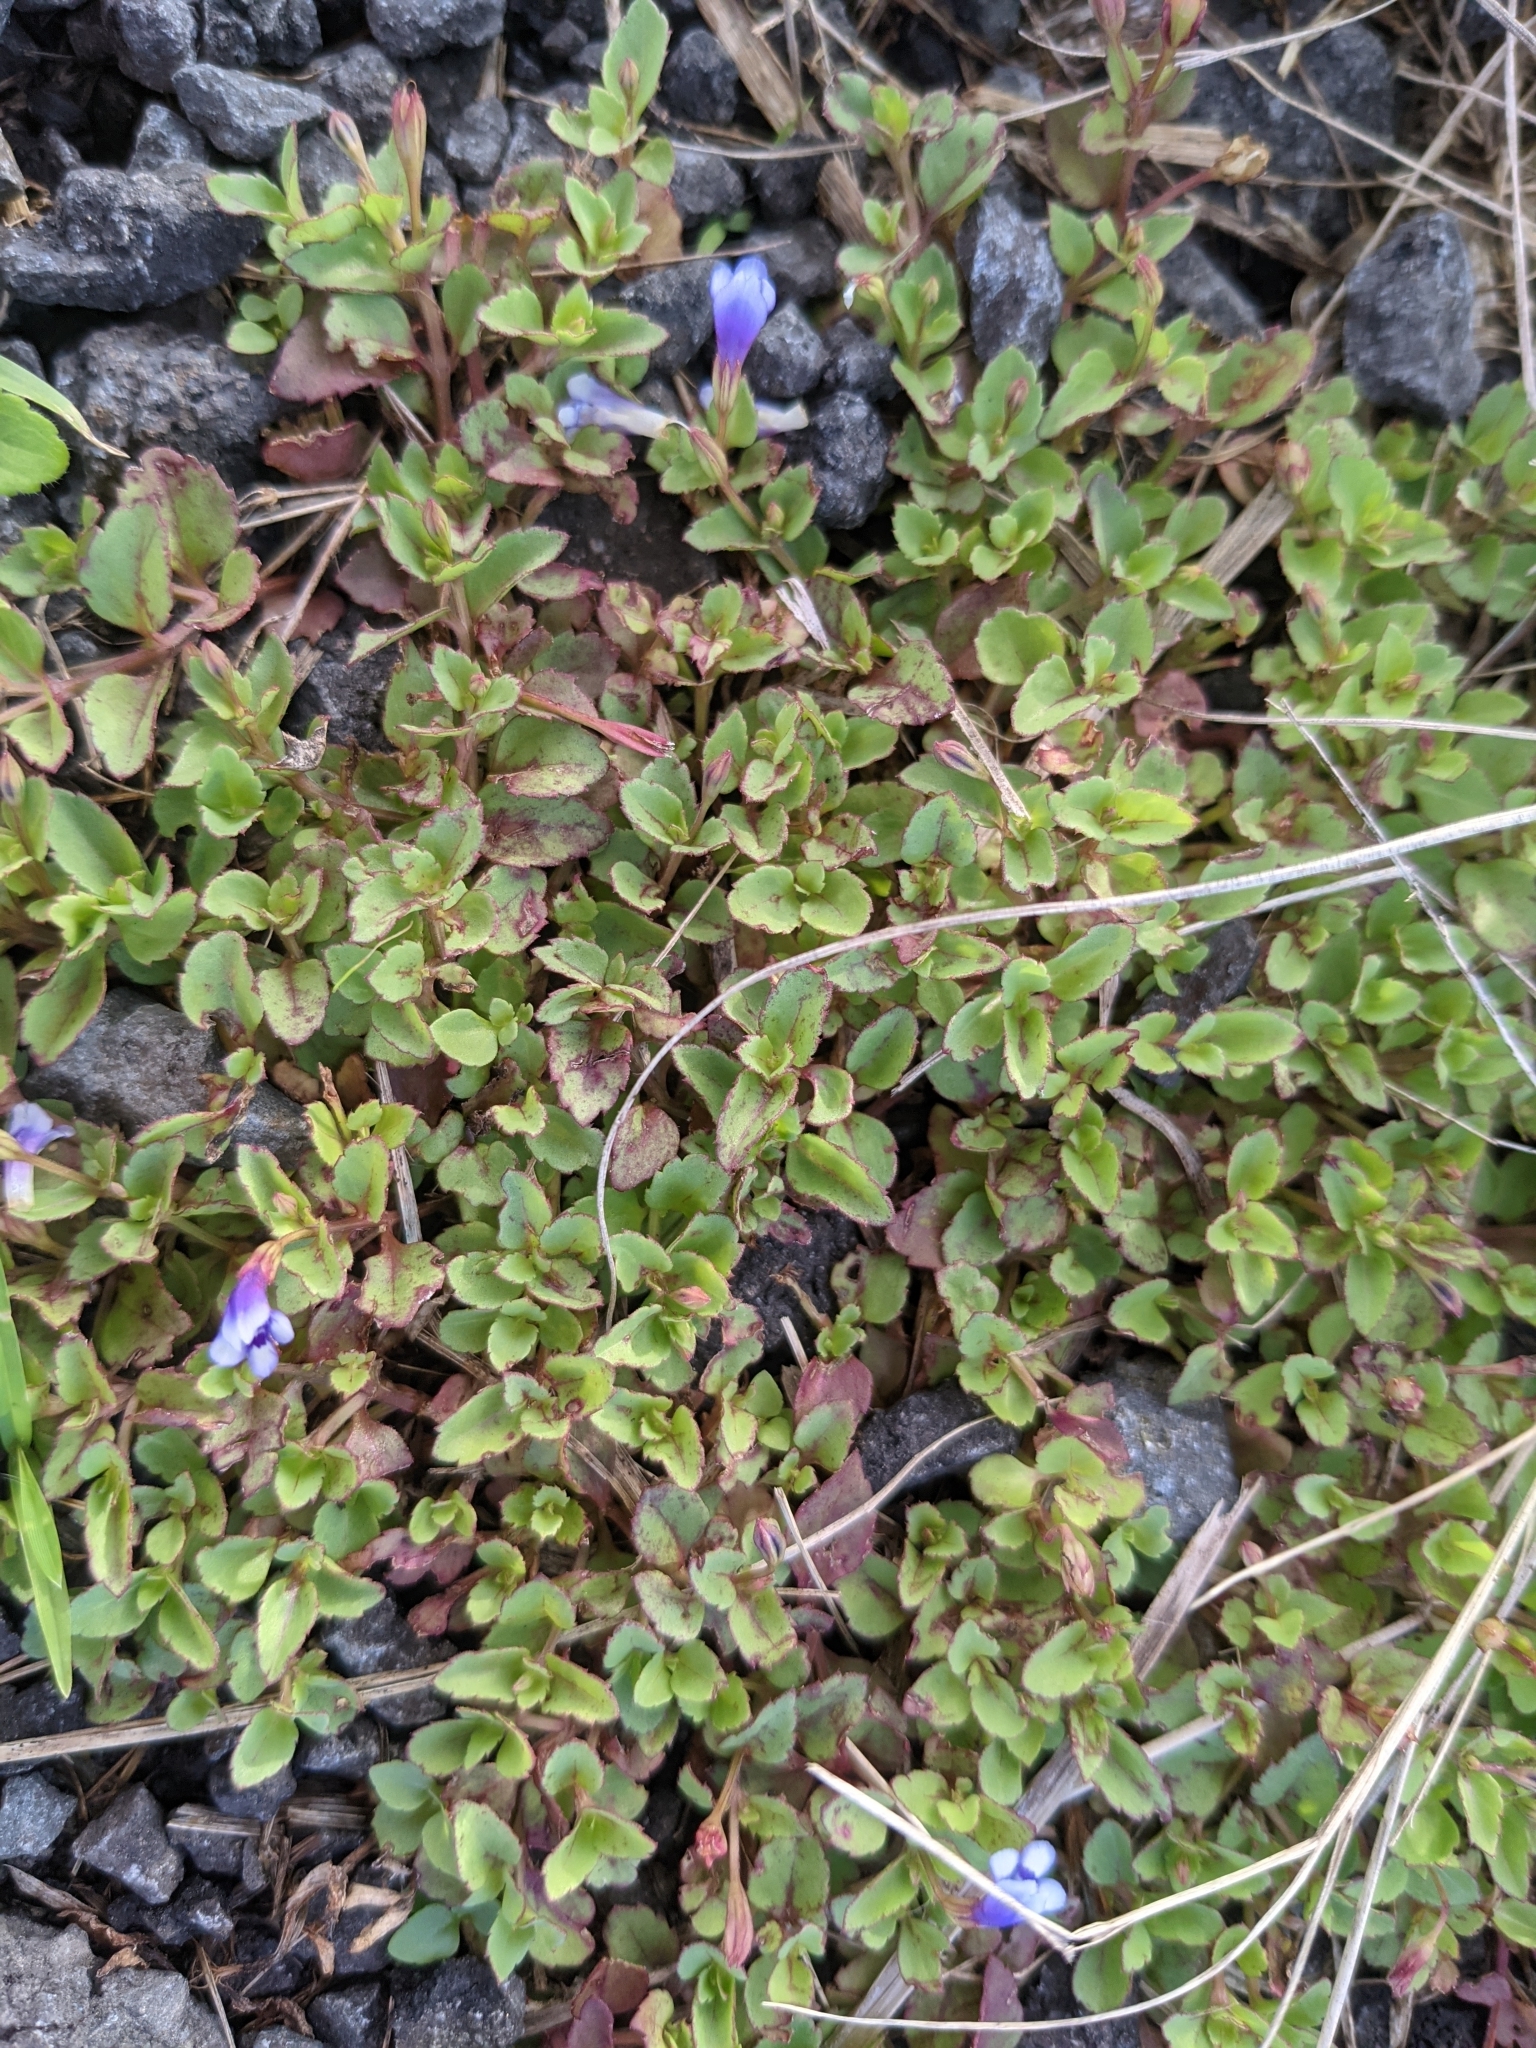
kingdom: Plantae
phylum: Tracheophyta
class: Magnoliopsida
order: Lamiales
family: Linderniaceae
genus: Torenia
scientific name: Torenia crustacea
